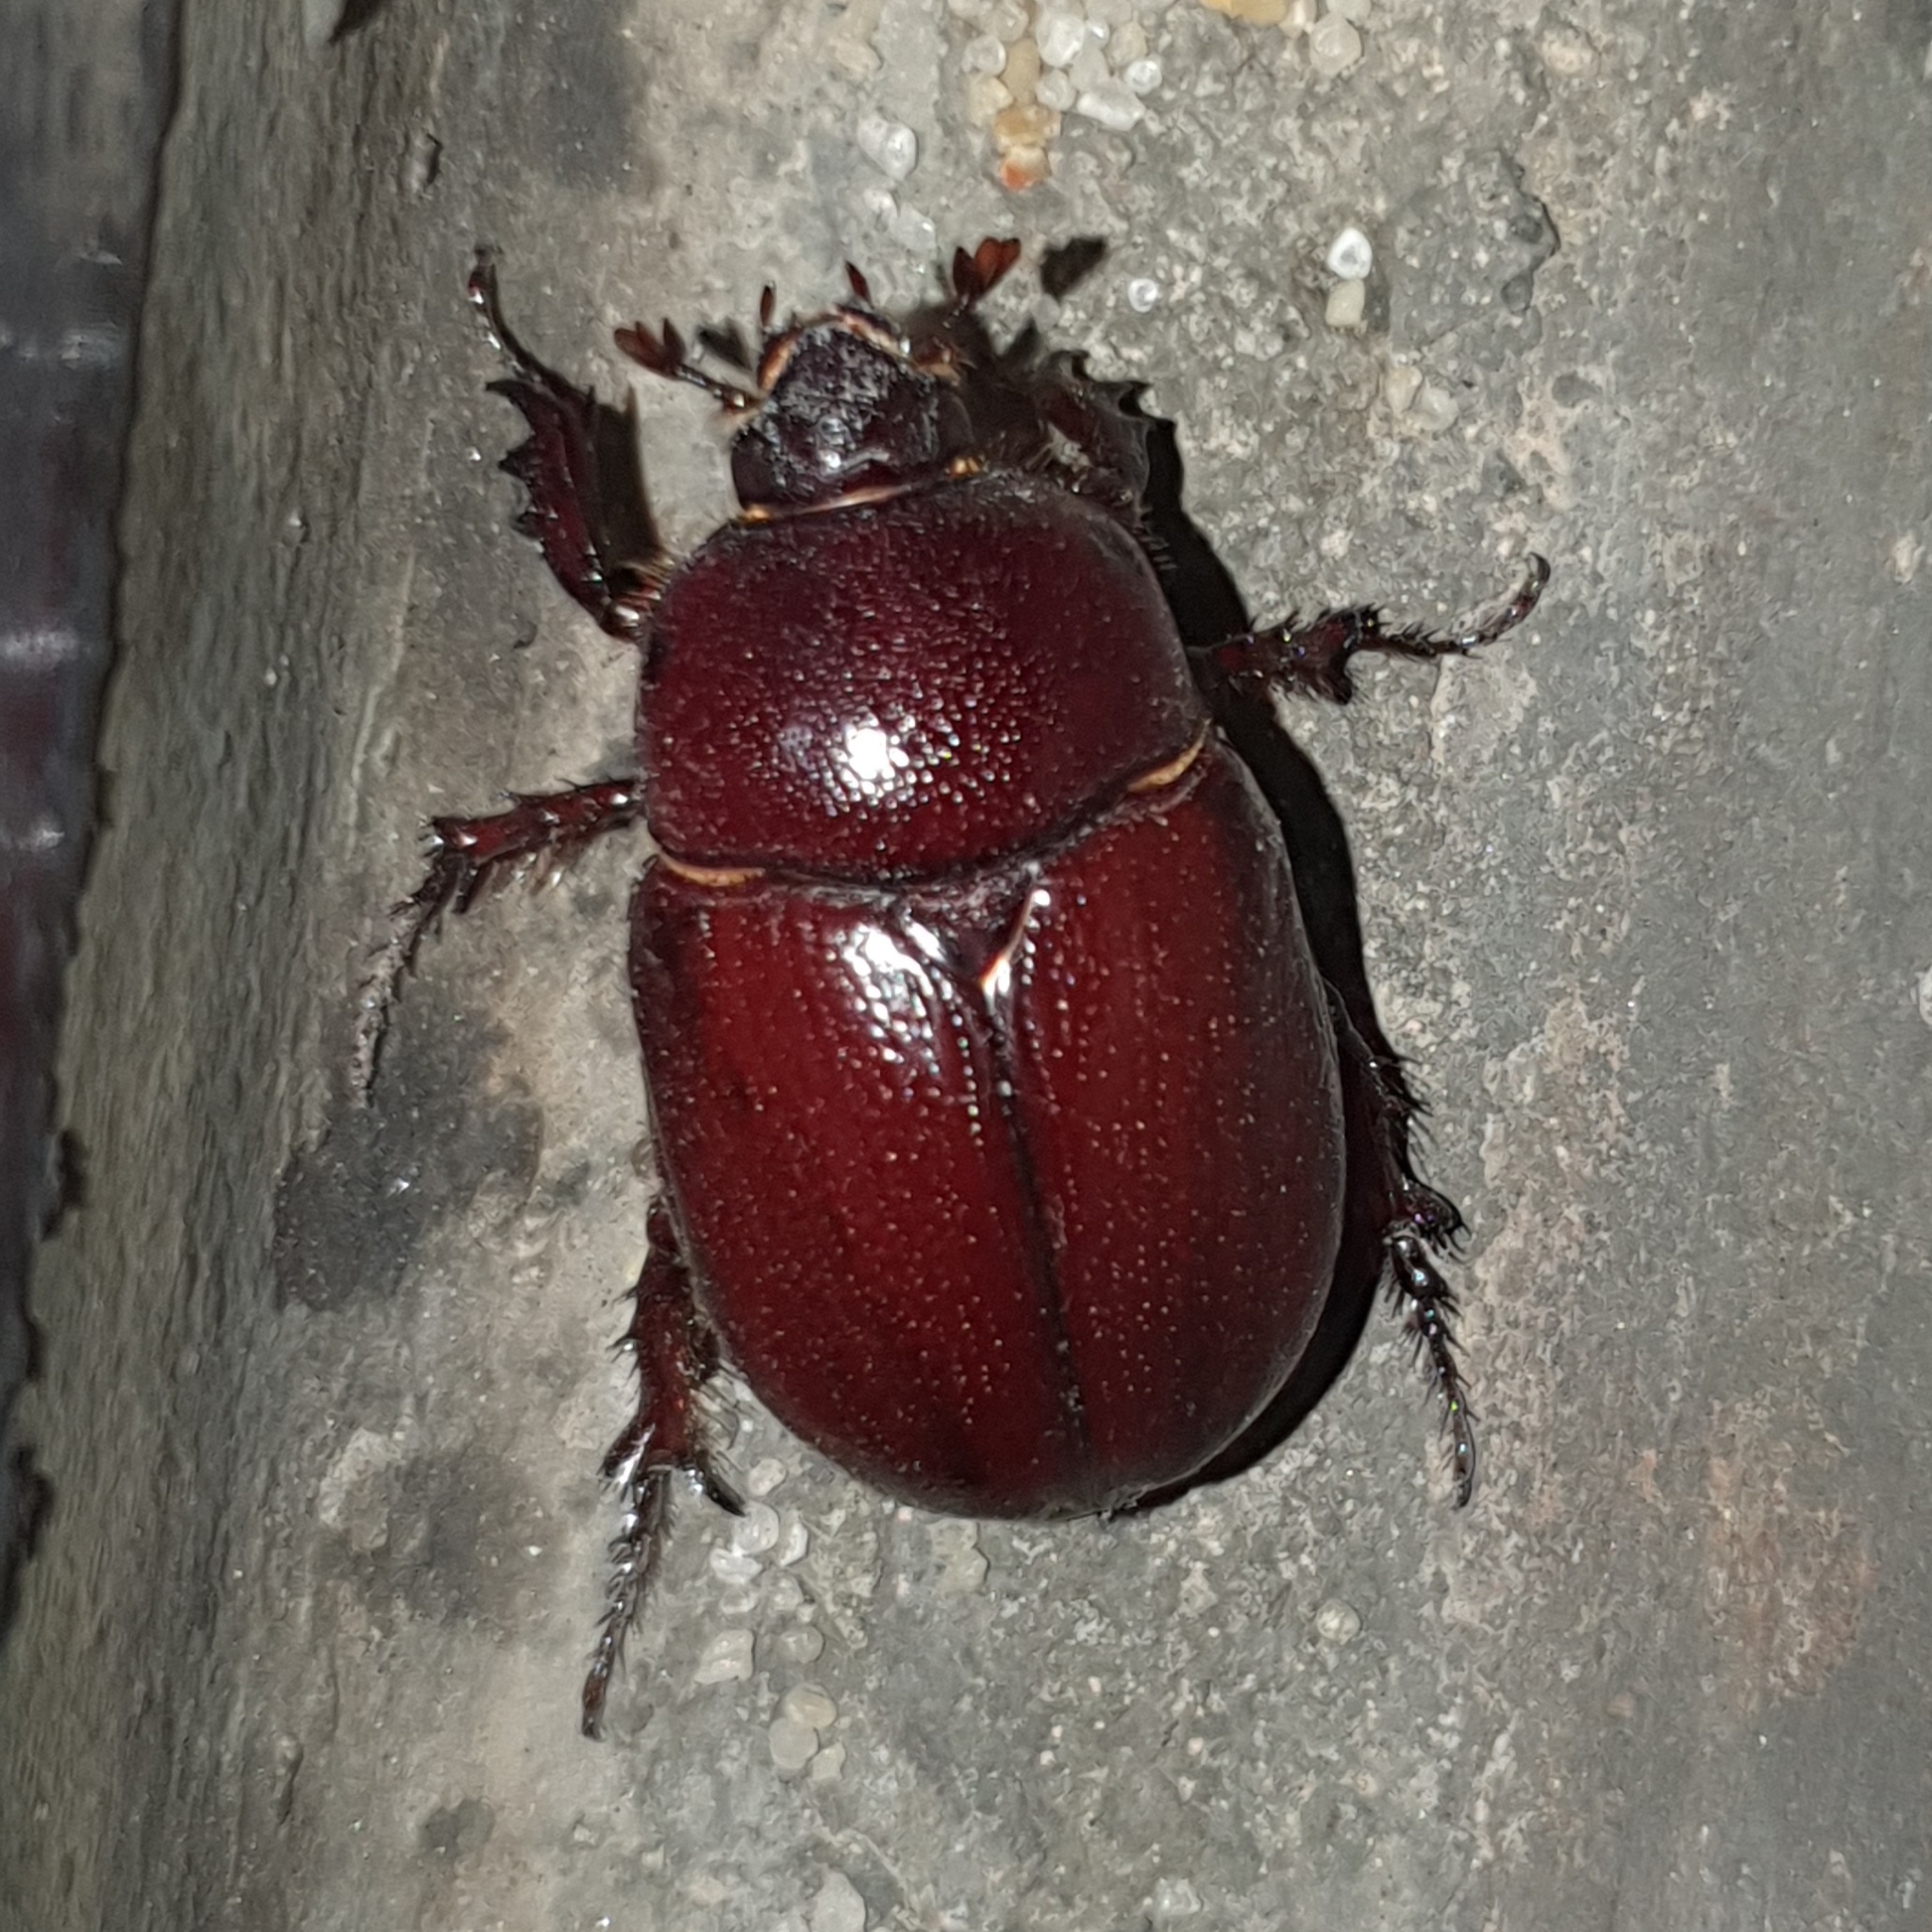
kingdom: Animalia
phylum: Arthropoda
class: Insecta
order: Coleoptera
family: Scarabaeidae
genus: Phyllognathus
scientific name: Phyllognathus excavatus
